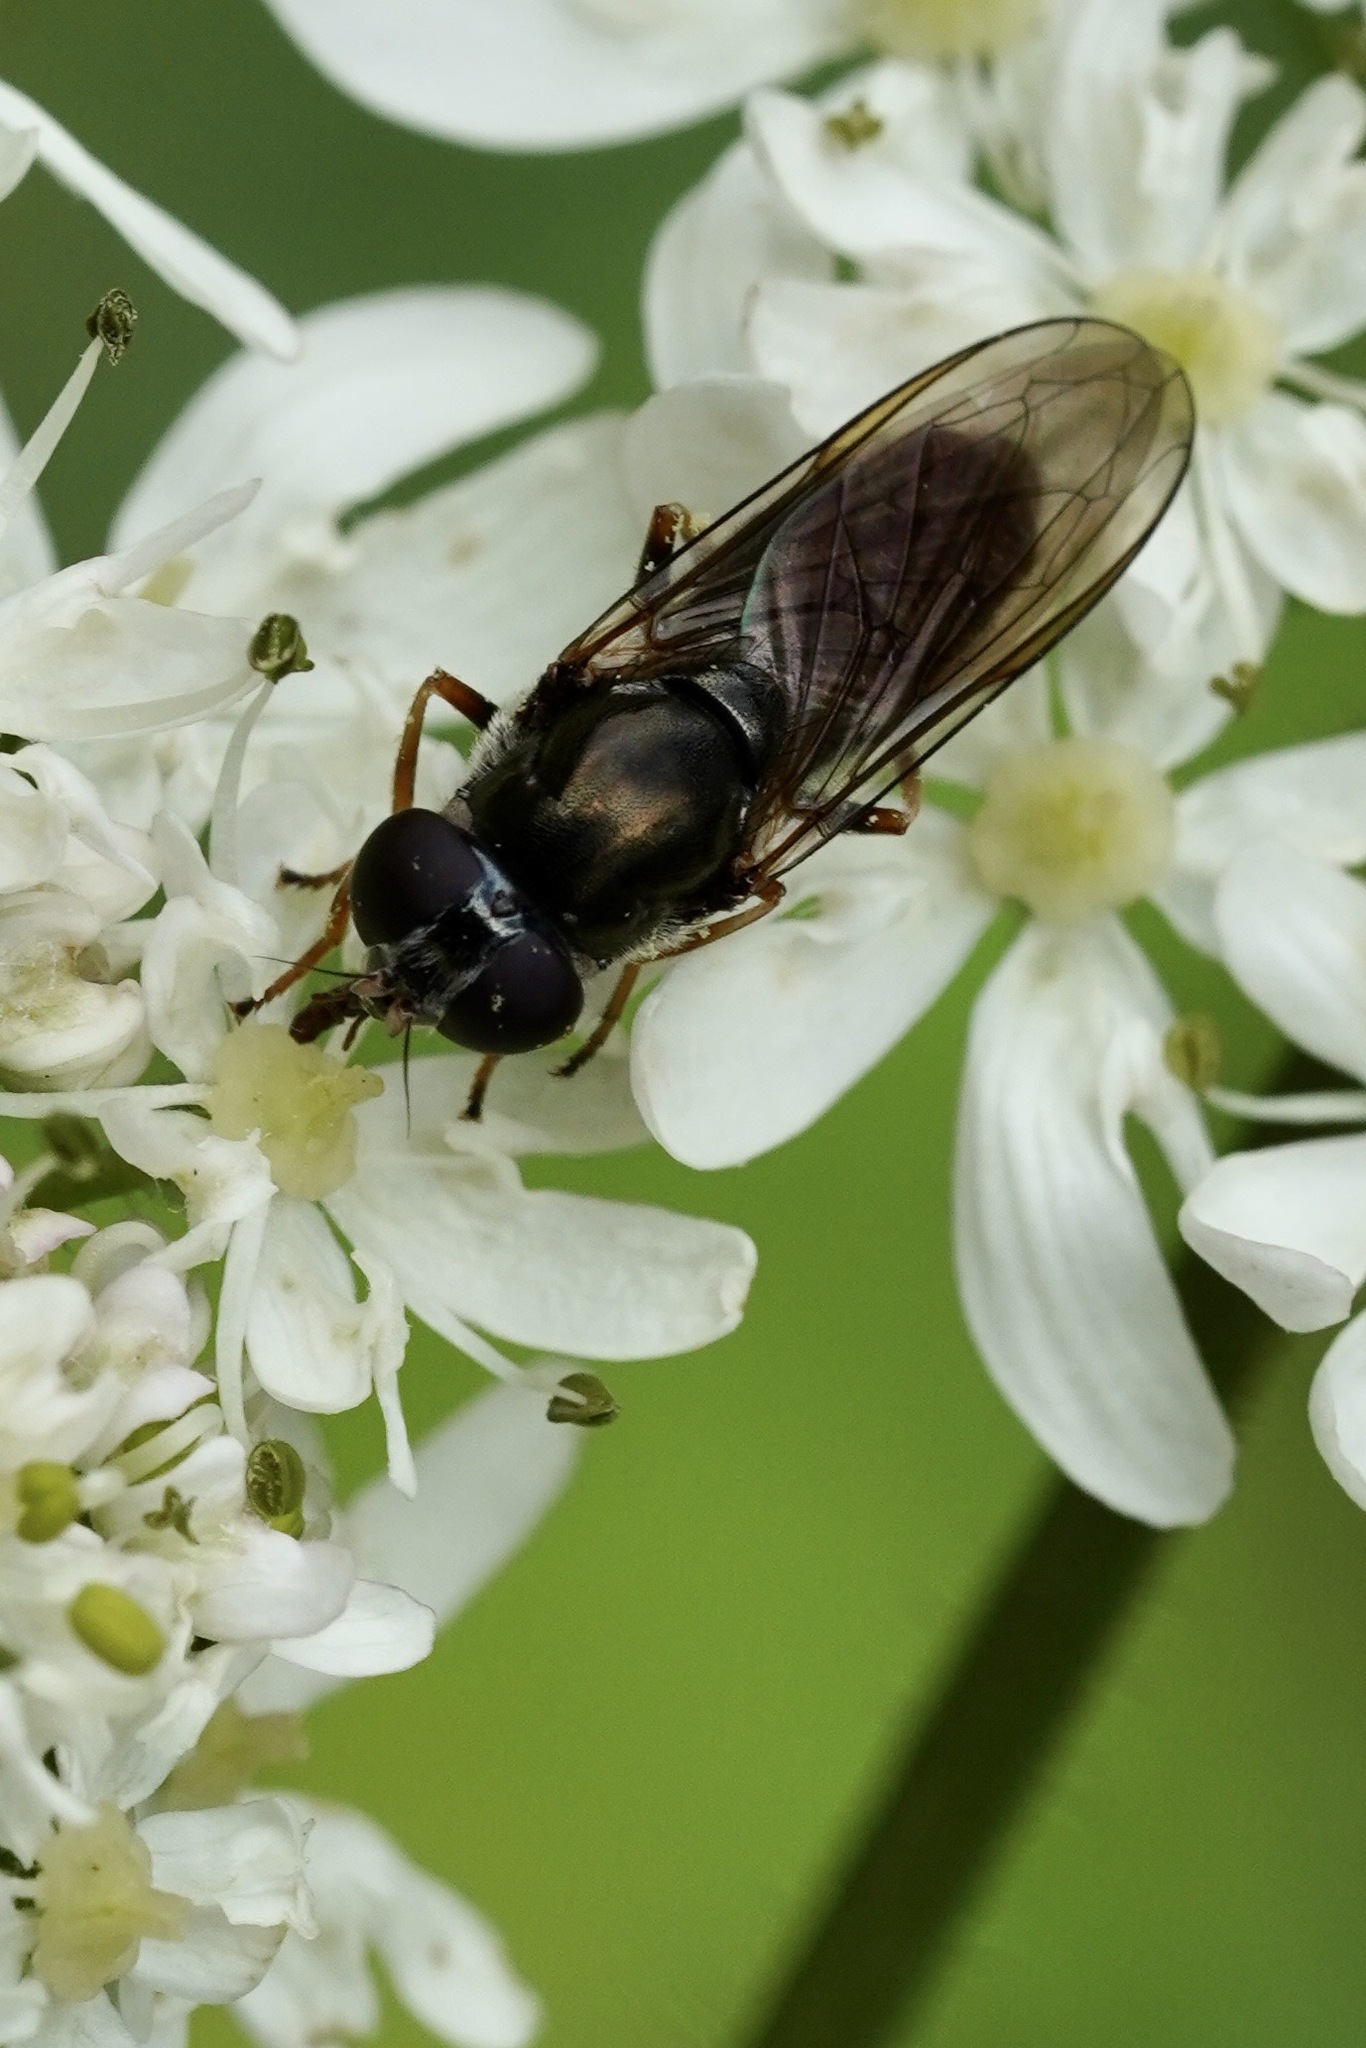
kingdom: Animalia
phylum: Arthropoda
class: Insecta
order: Diptera
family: Syrphidae
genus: Cheilosia
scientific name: Cheilosia pagana
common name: Hover fly
